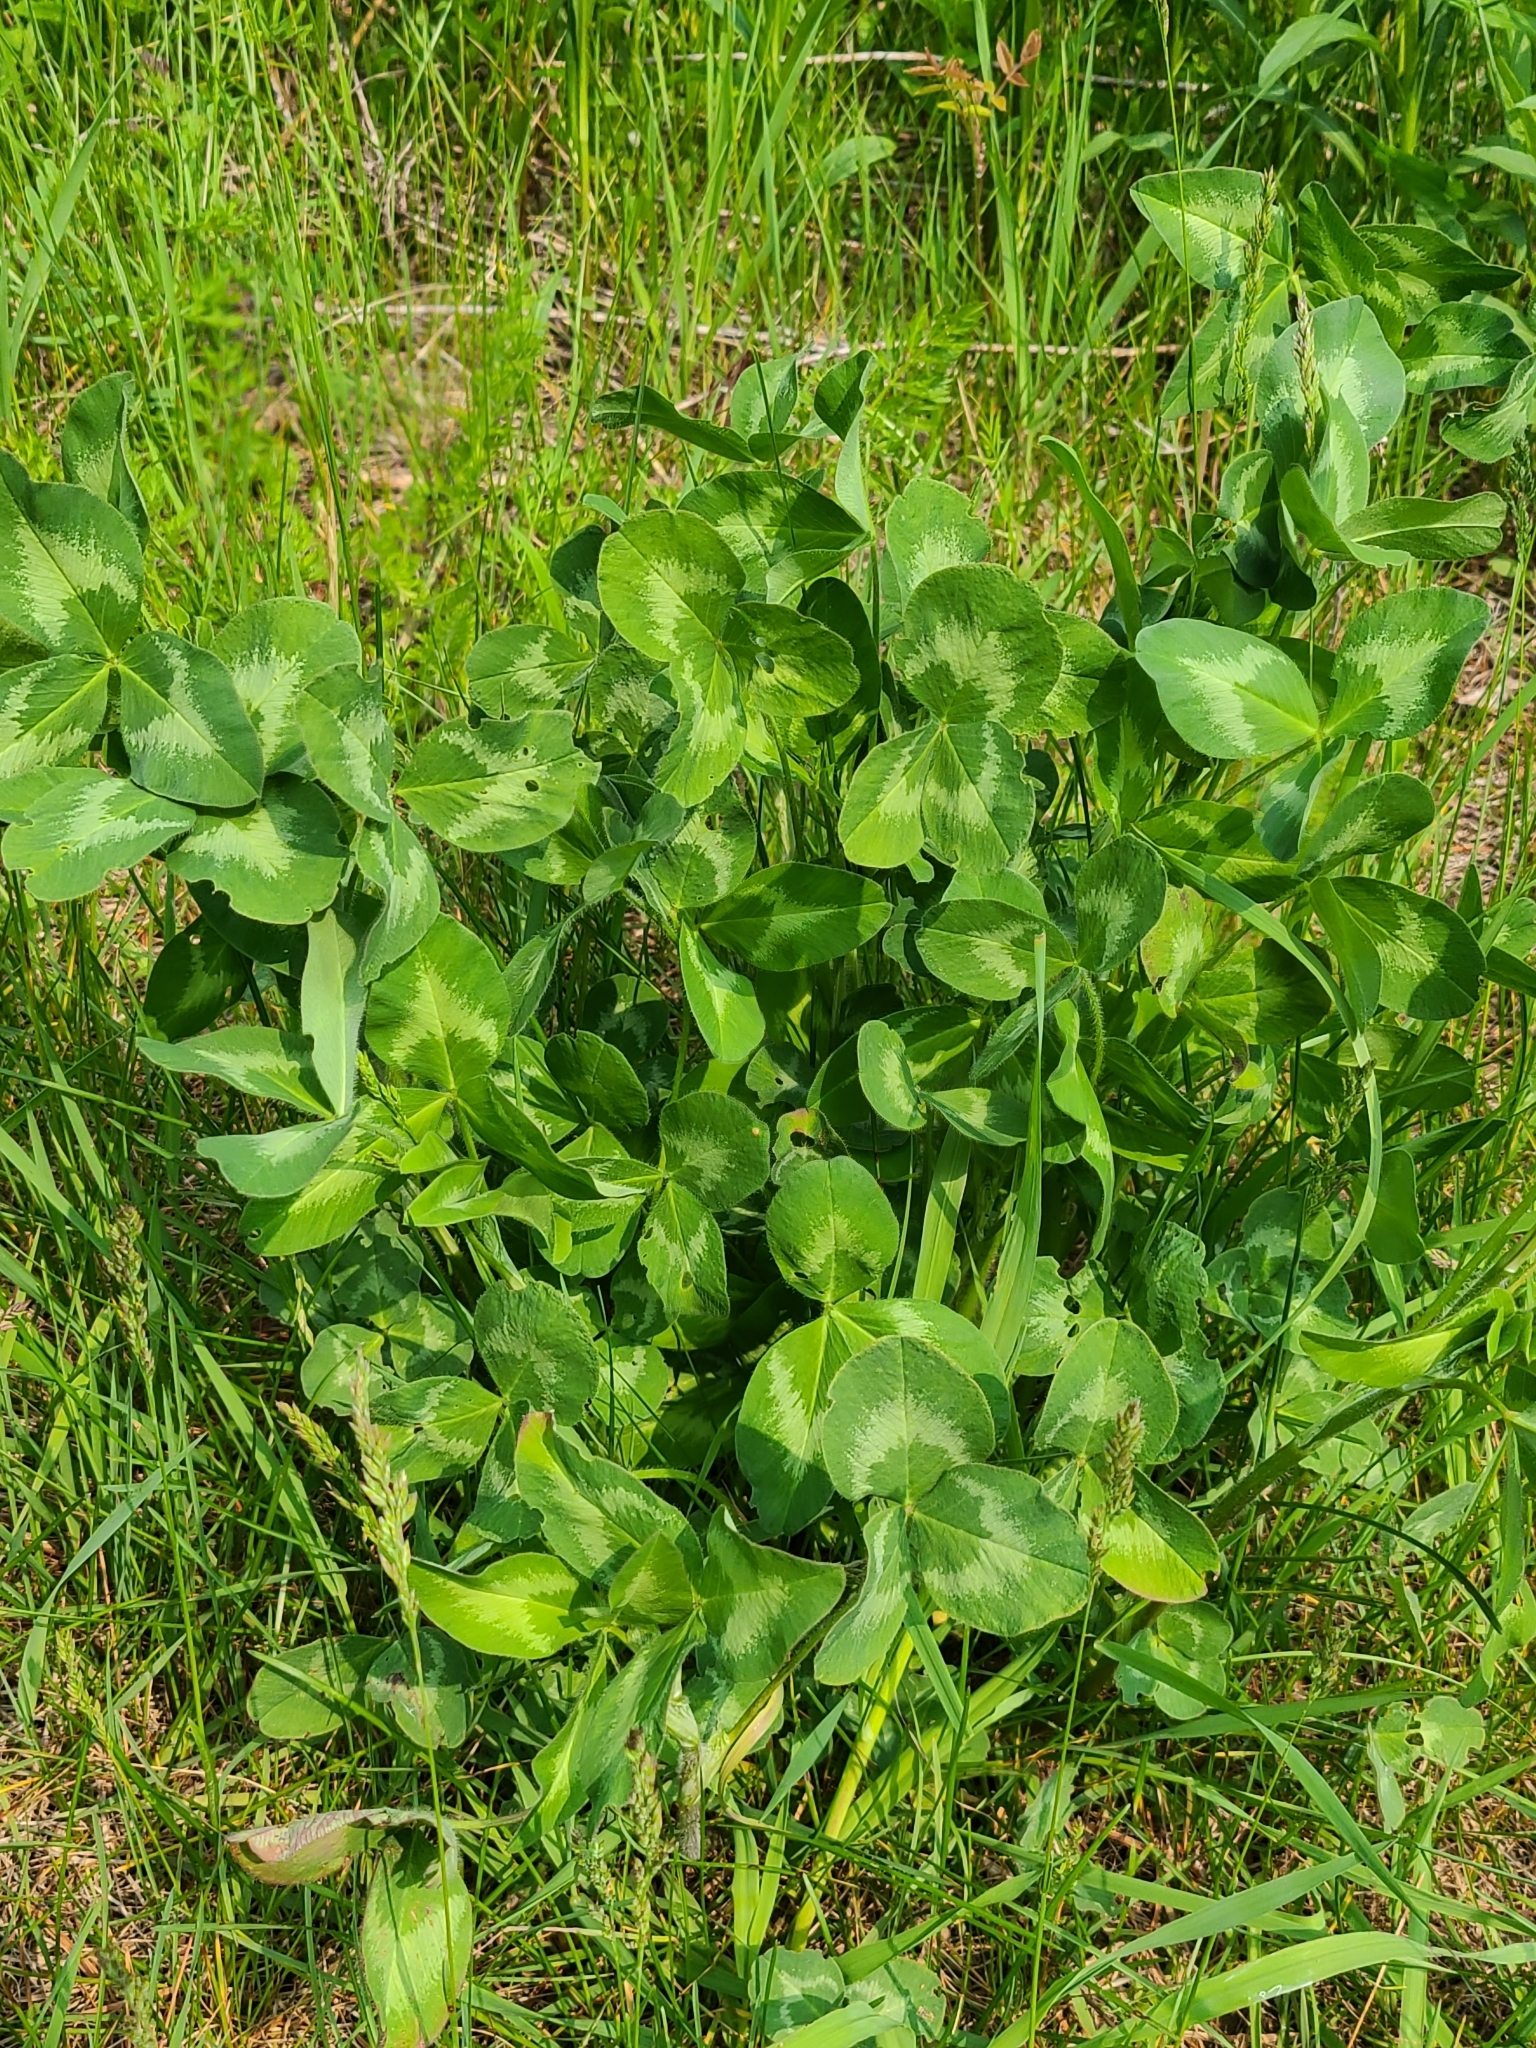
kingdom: Plantae
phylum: Tracheophyta
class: Magnoliopsida
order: Fabales
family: Fabaceae
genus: Trifolium
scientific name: Trifolium pratense
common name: Red clover
